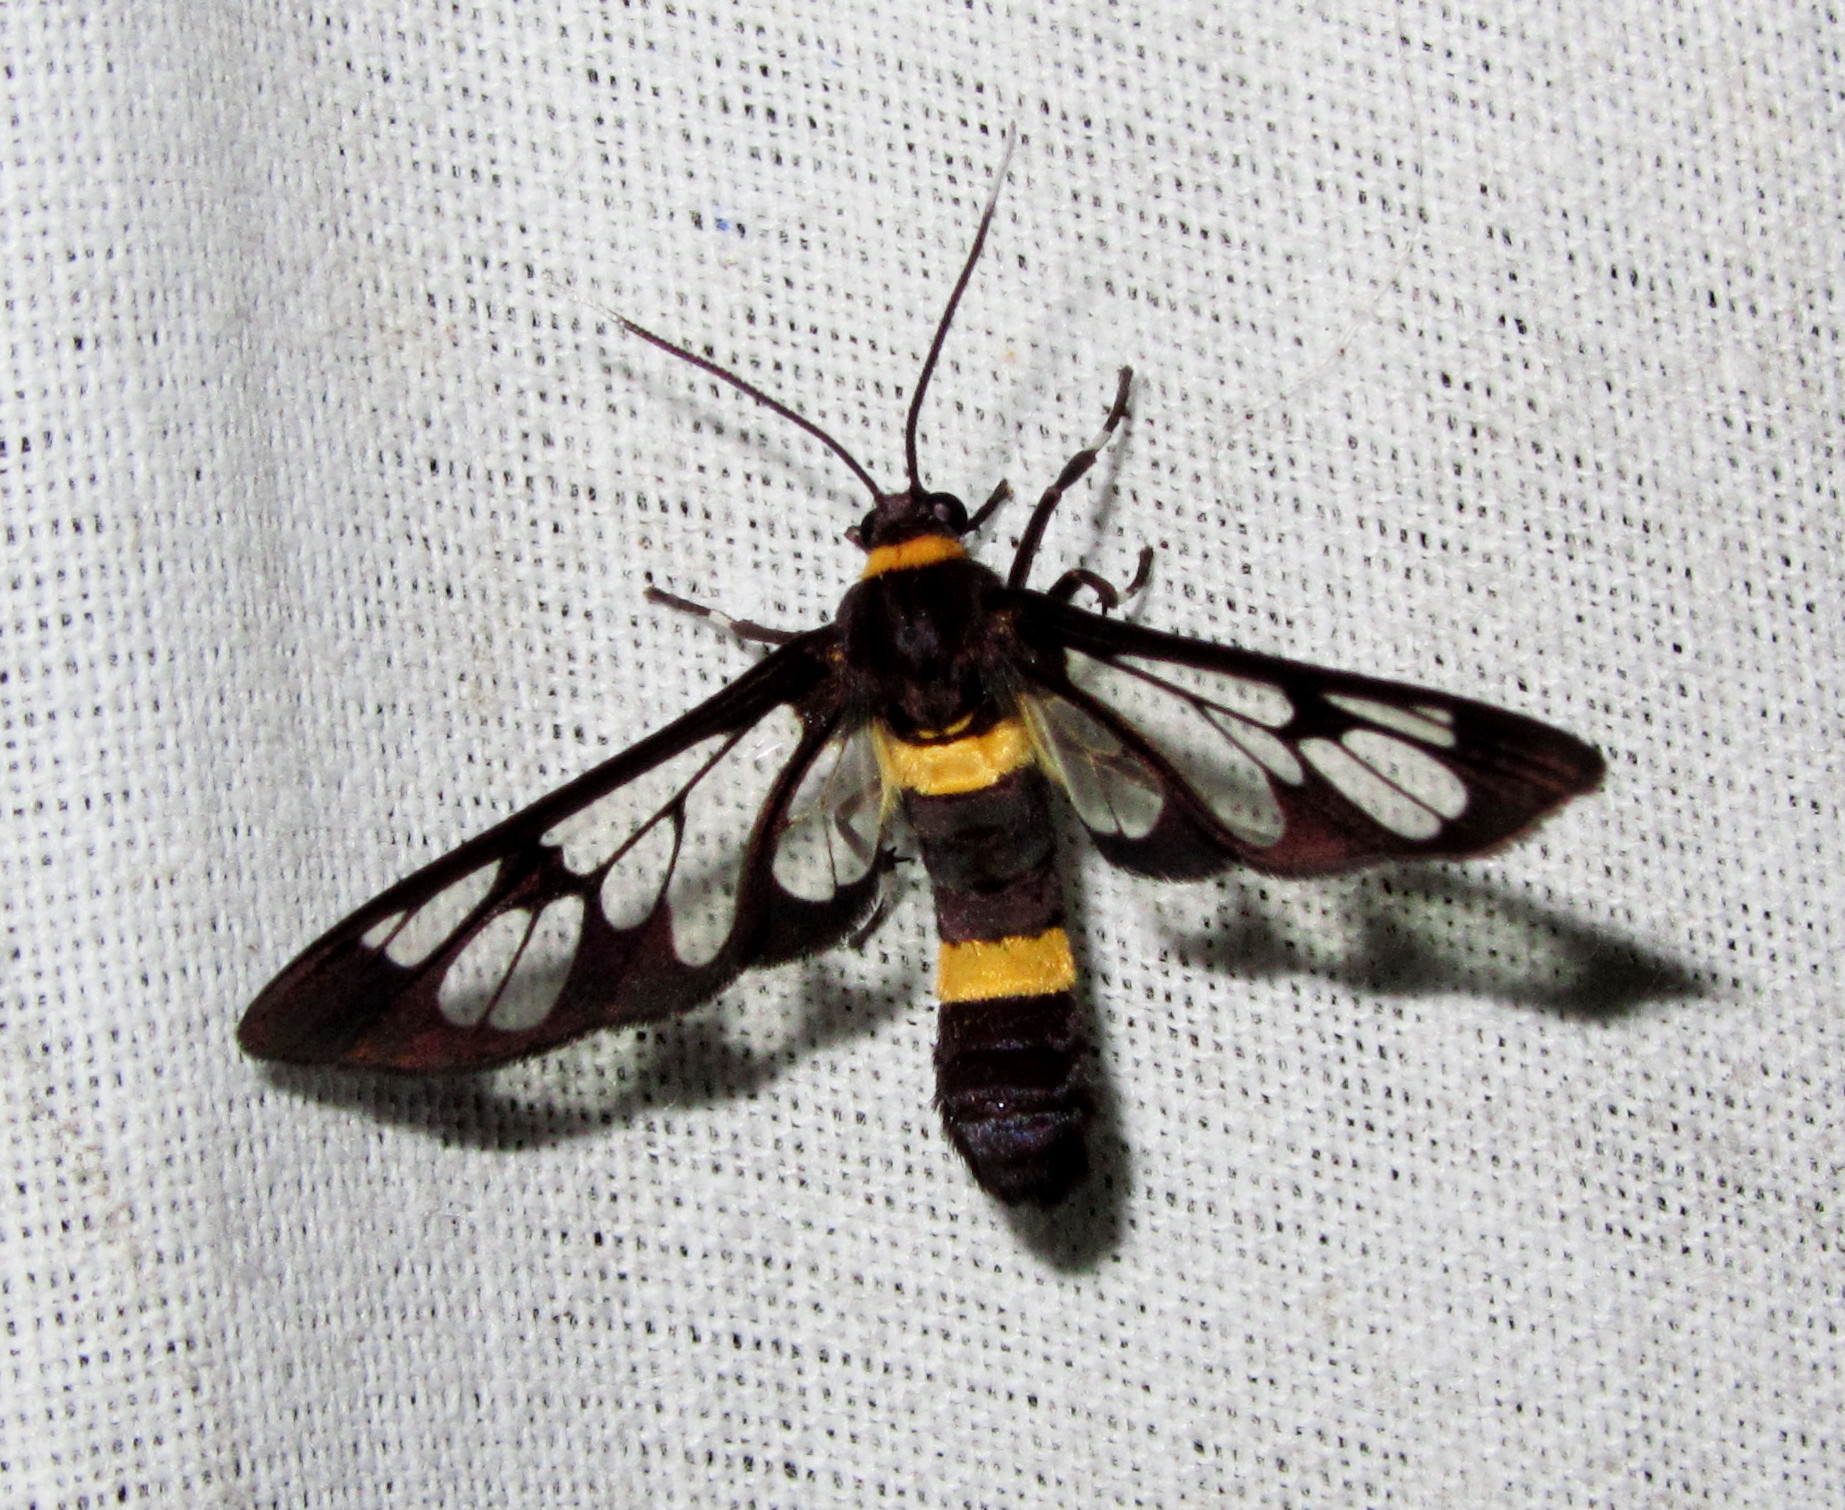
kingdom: Animalia
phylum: Arthropoda
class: Insecta
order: Lepidoptera
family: Erebidae
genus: Syntomoides
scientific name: Syntomoides imaon
